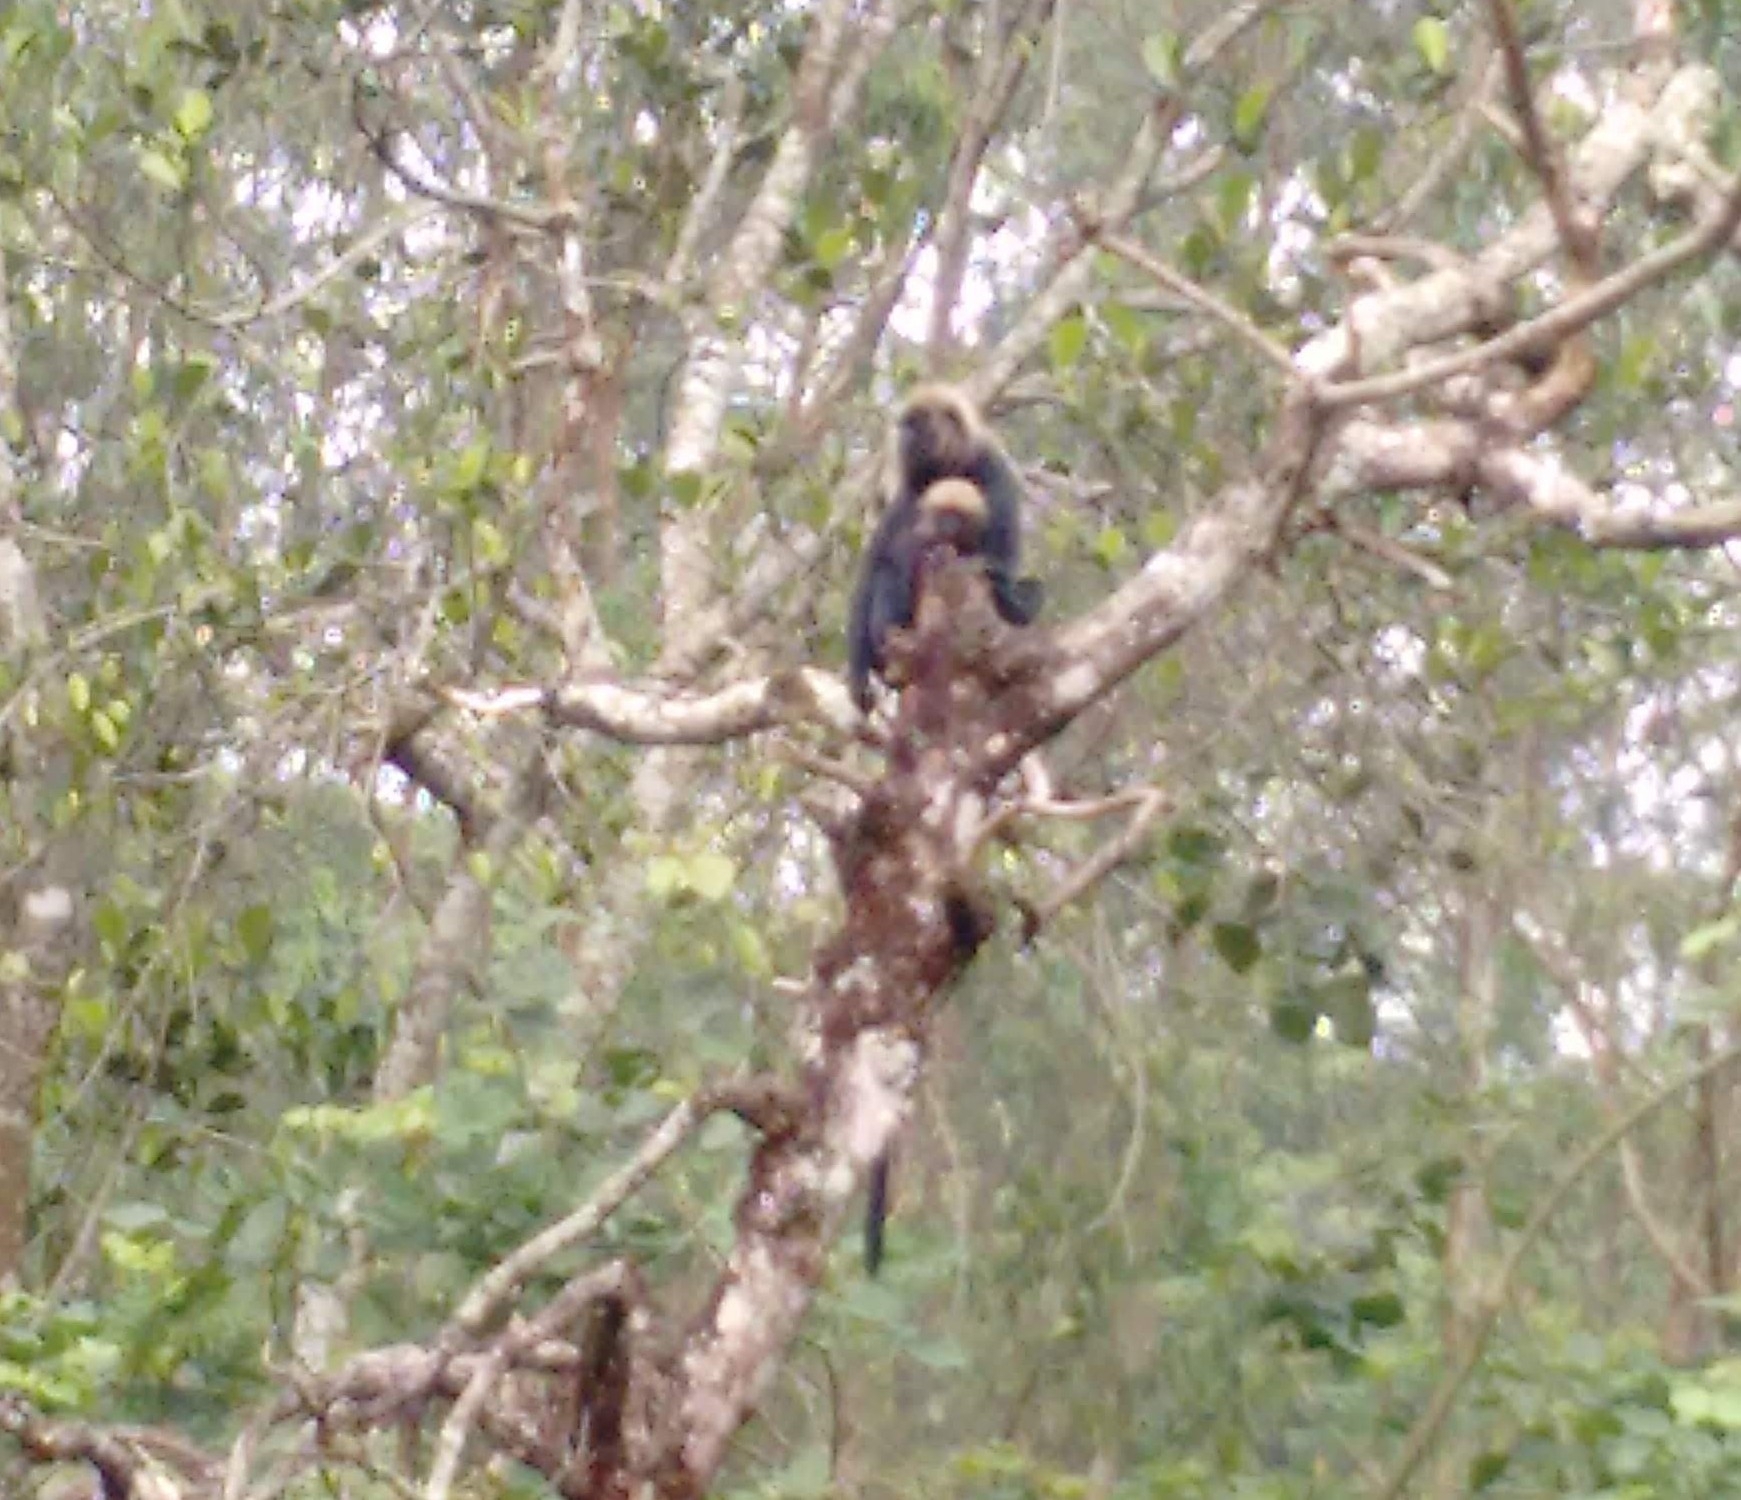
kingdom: Animalia
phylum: Chordata
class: Mammalia
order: Primates
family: Cercopithecidae
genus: Semnopithecus
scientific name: Semnopithecus johnii
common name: Nilgiri langur
